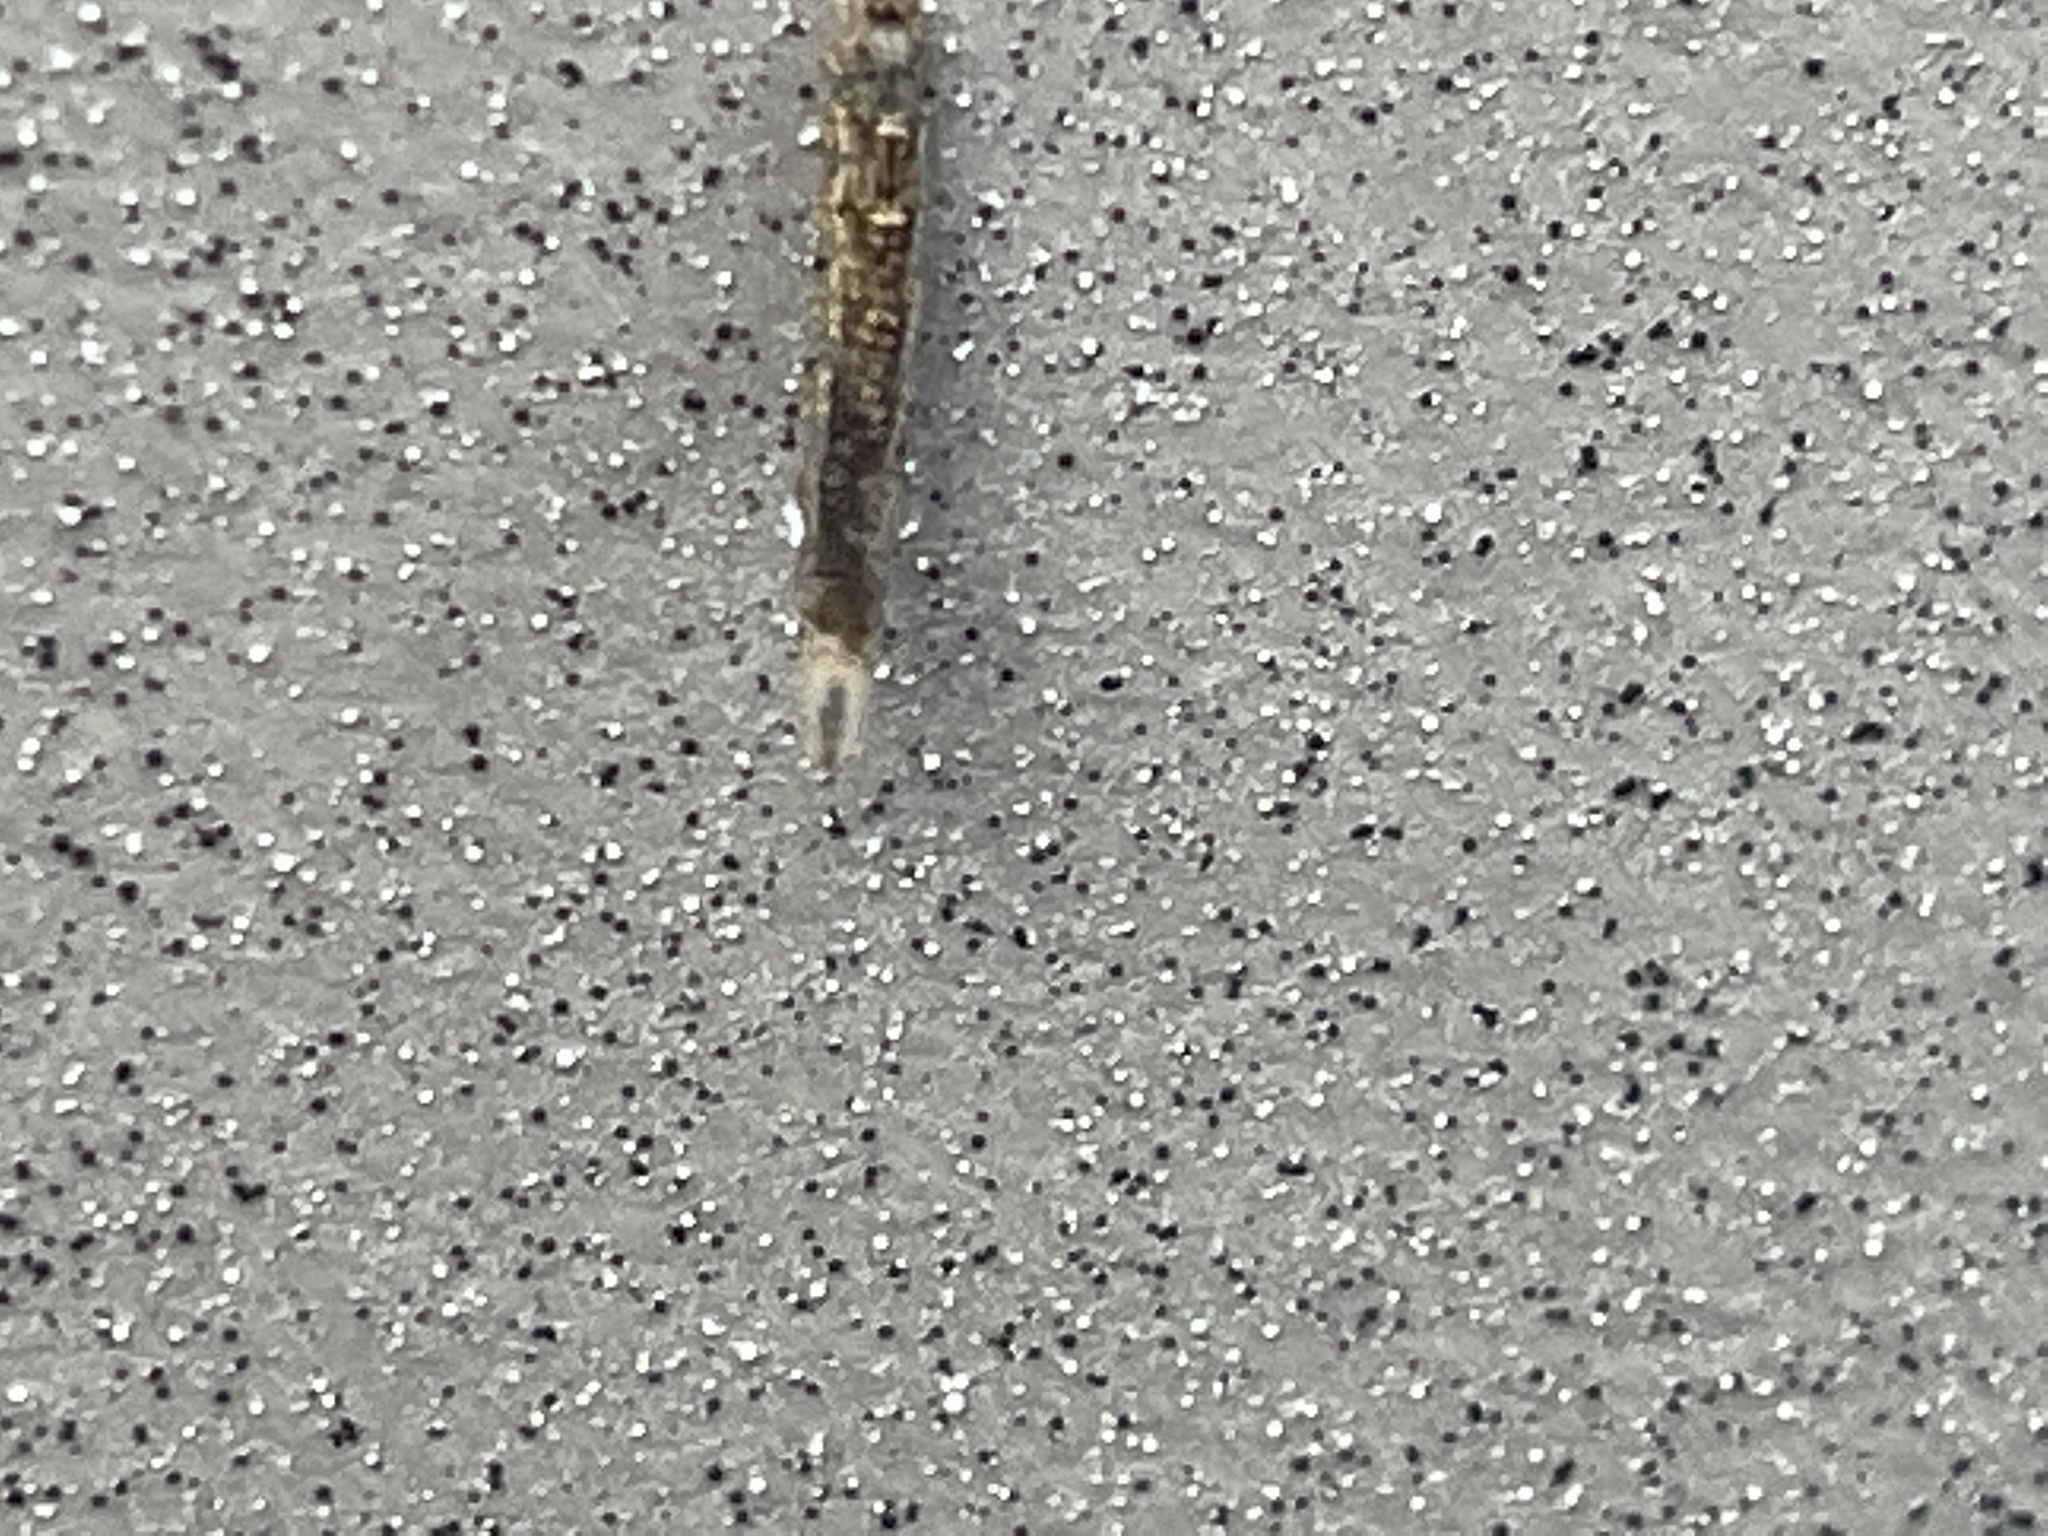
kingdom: Animalia
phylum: Arthropoda
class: Insecta
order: Diptera
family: Syrphidae
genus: Eupeodes
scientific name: Eupeodes americanus
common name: Long-tailed aphideater
